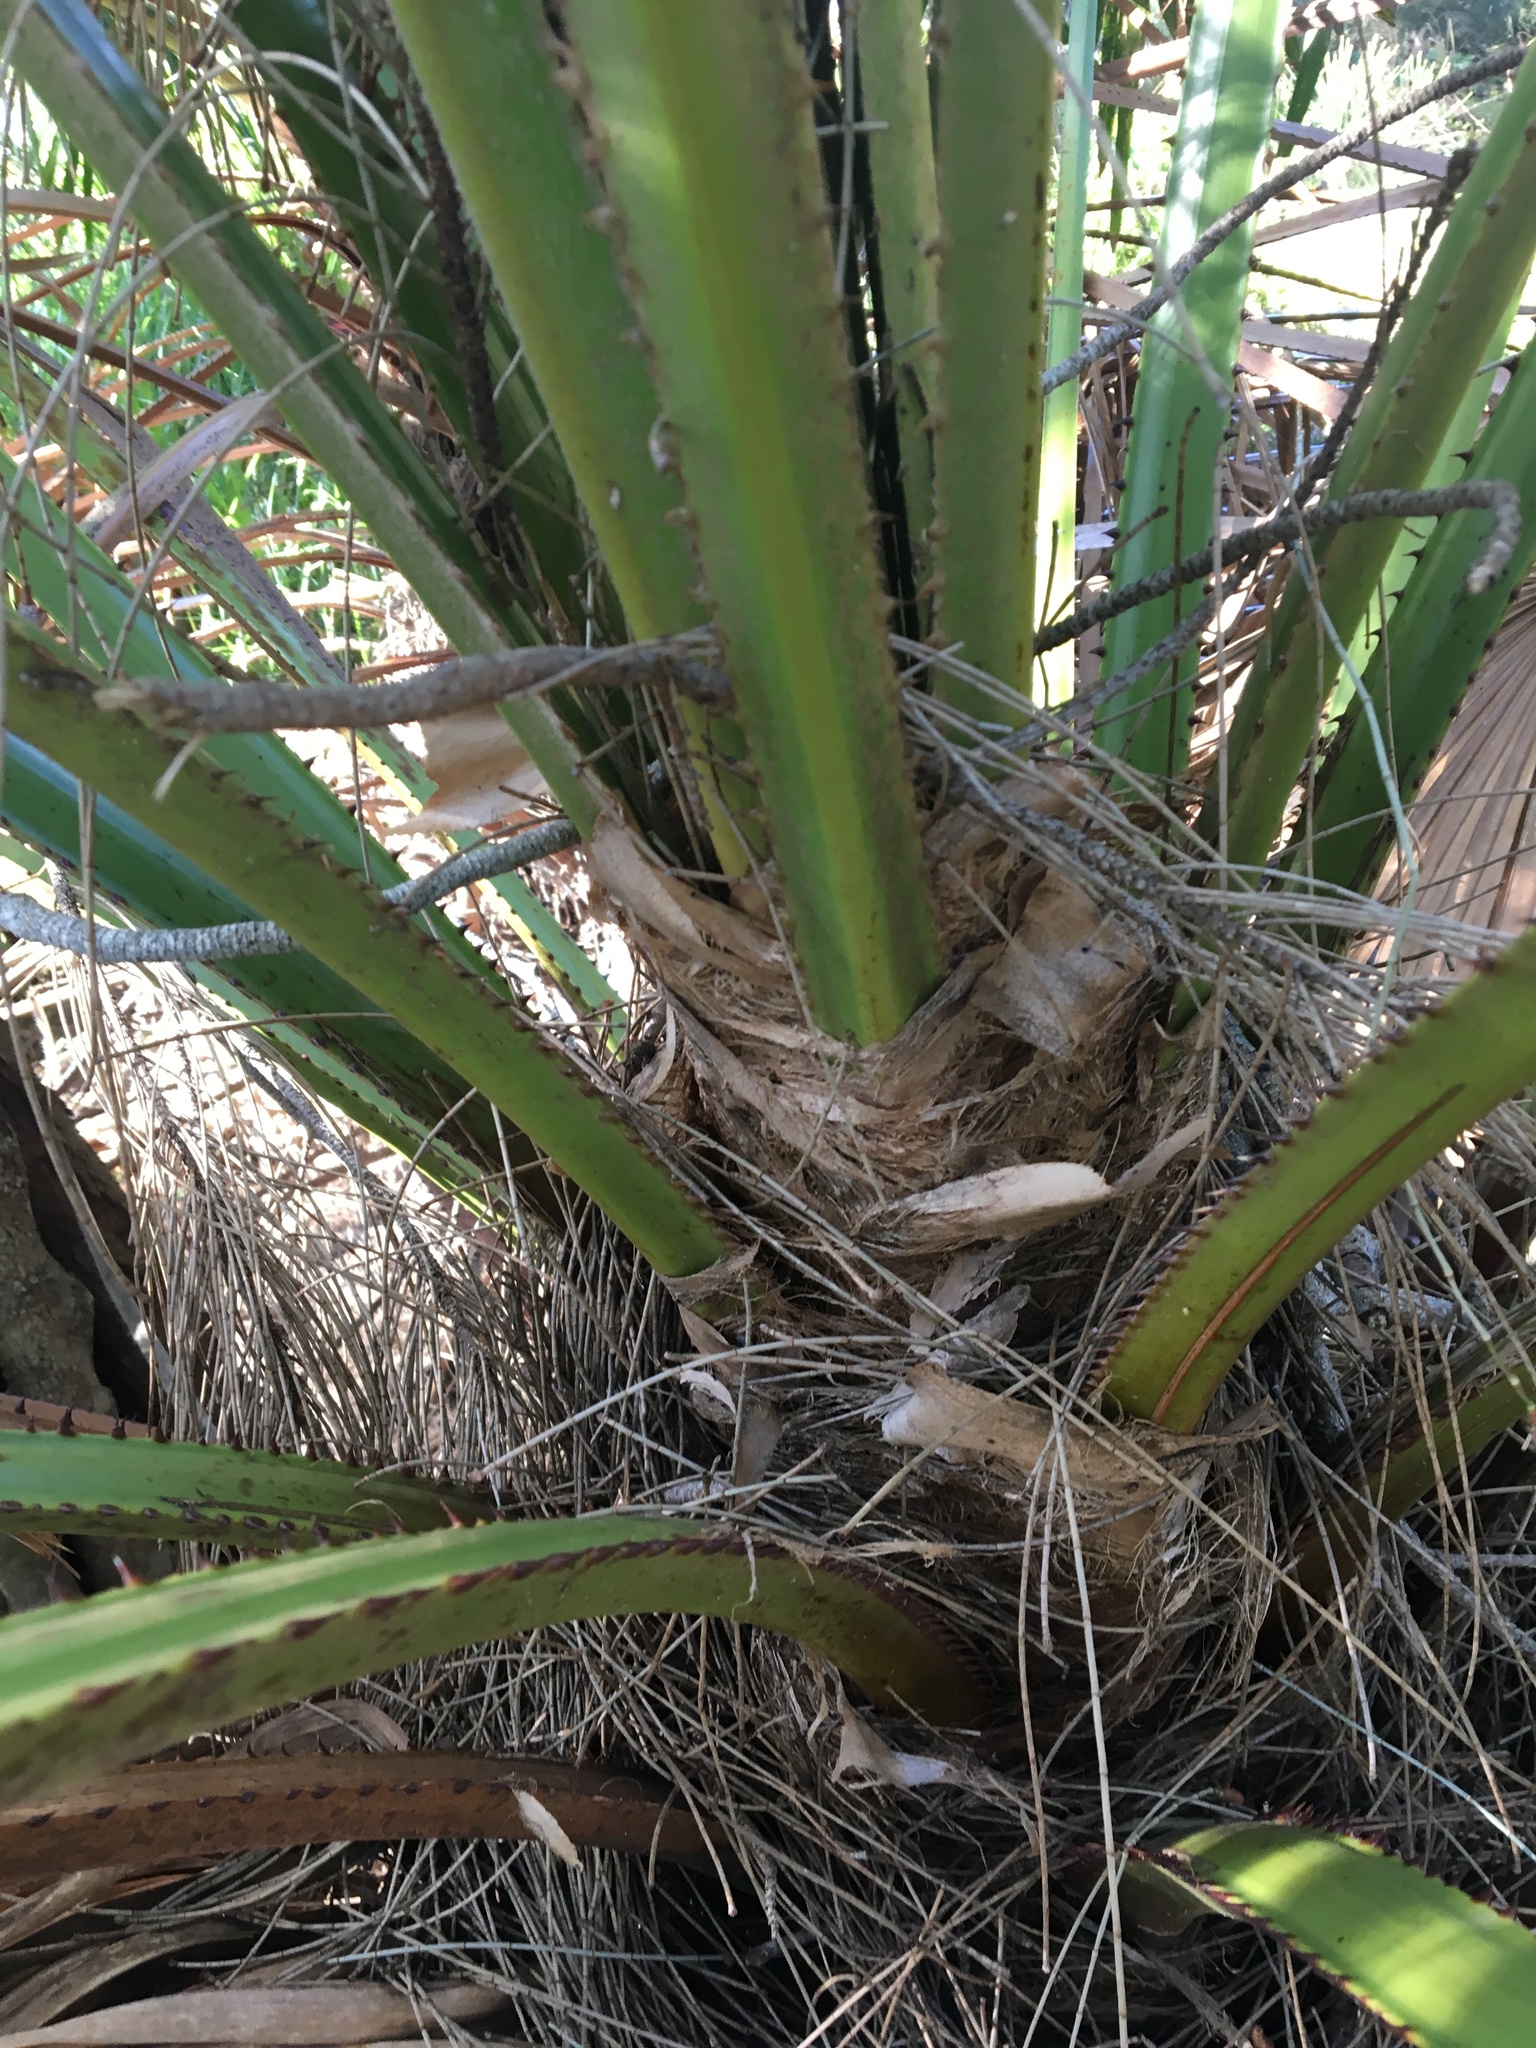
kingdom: Plantae
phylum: Tracheophyta
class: Liliopsida
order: Arecales
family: Arecaceae
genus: Livistona
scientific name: Livistona australis
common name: Cabbage fan palm
